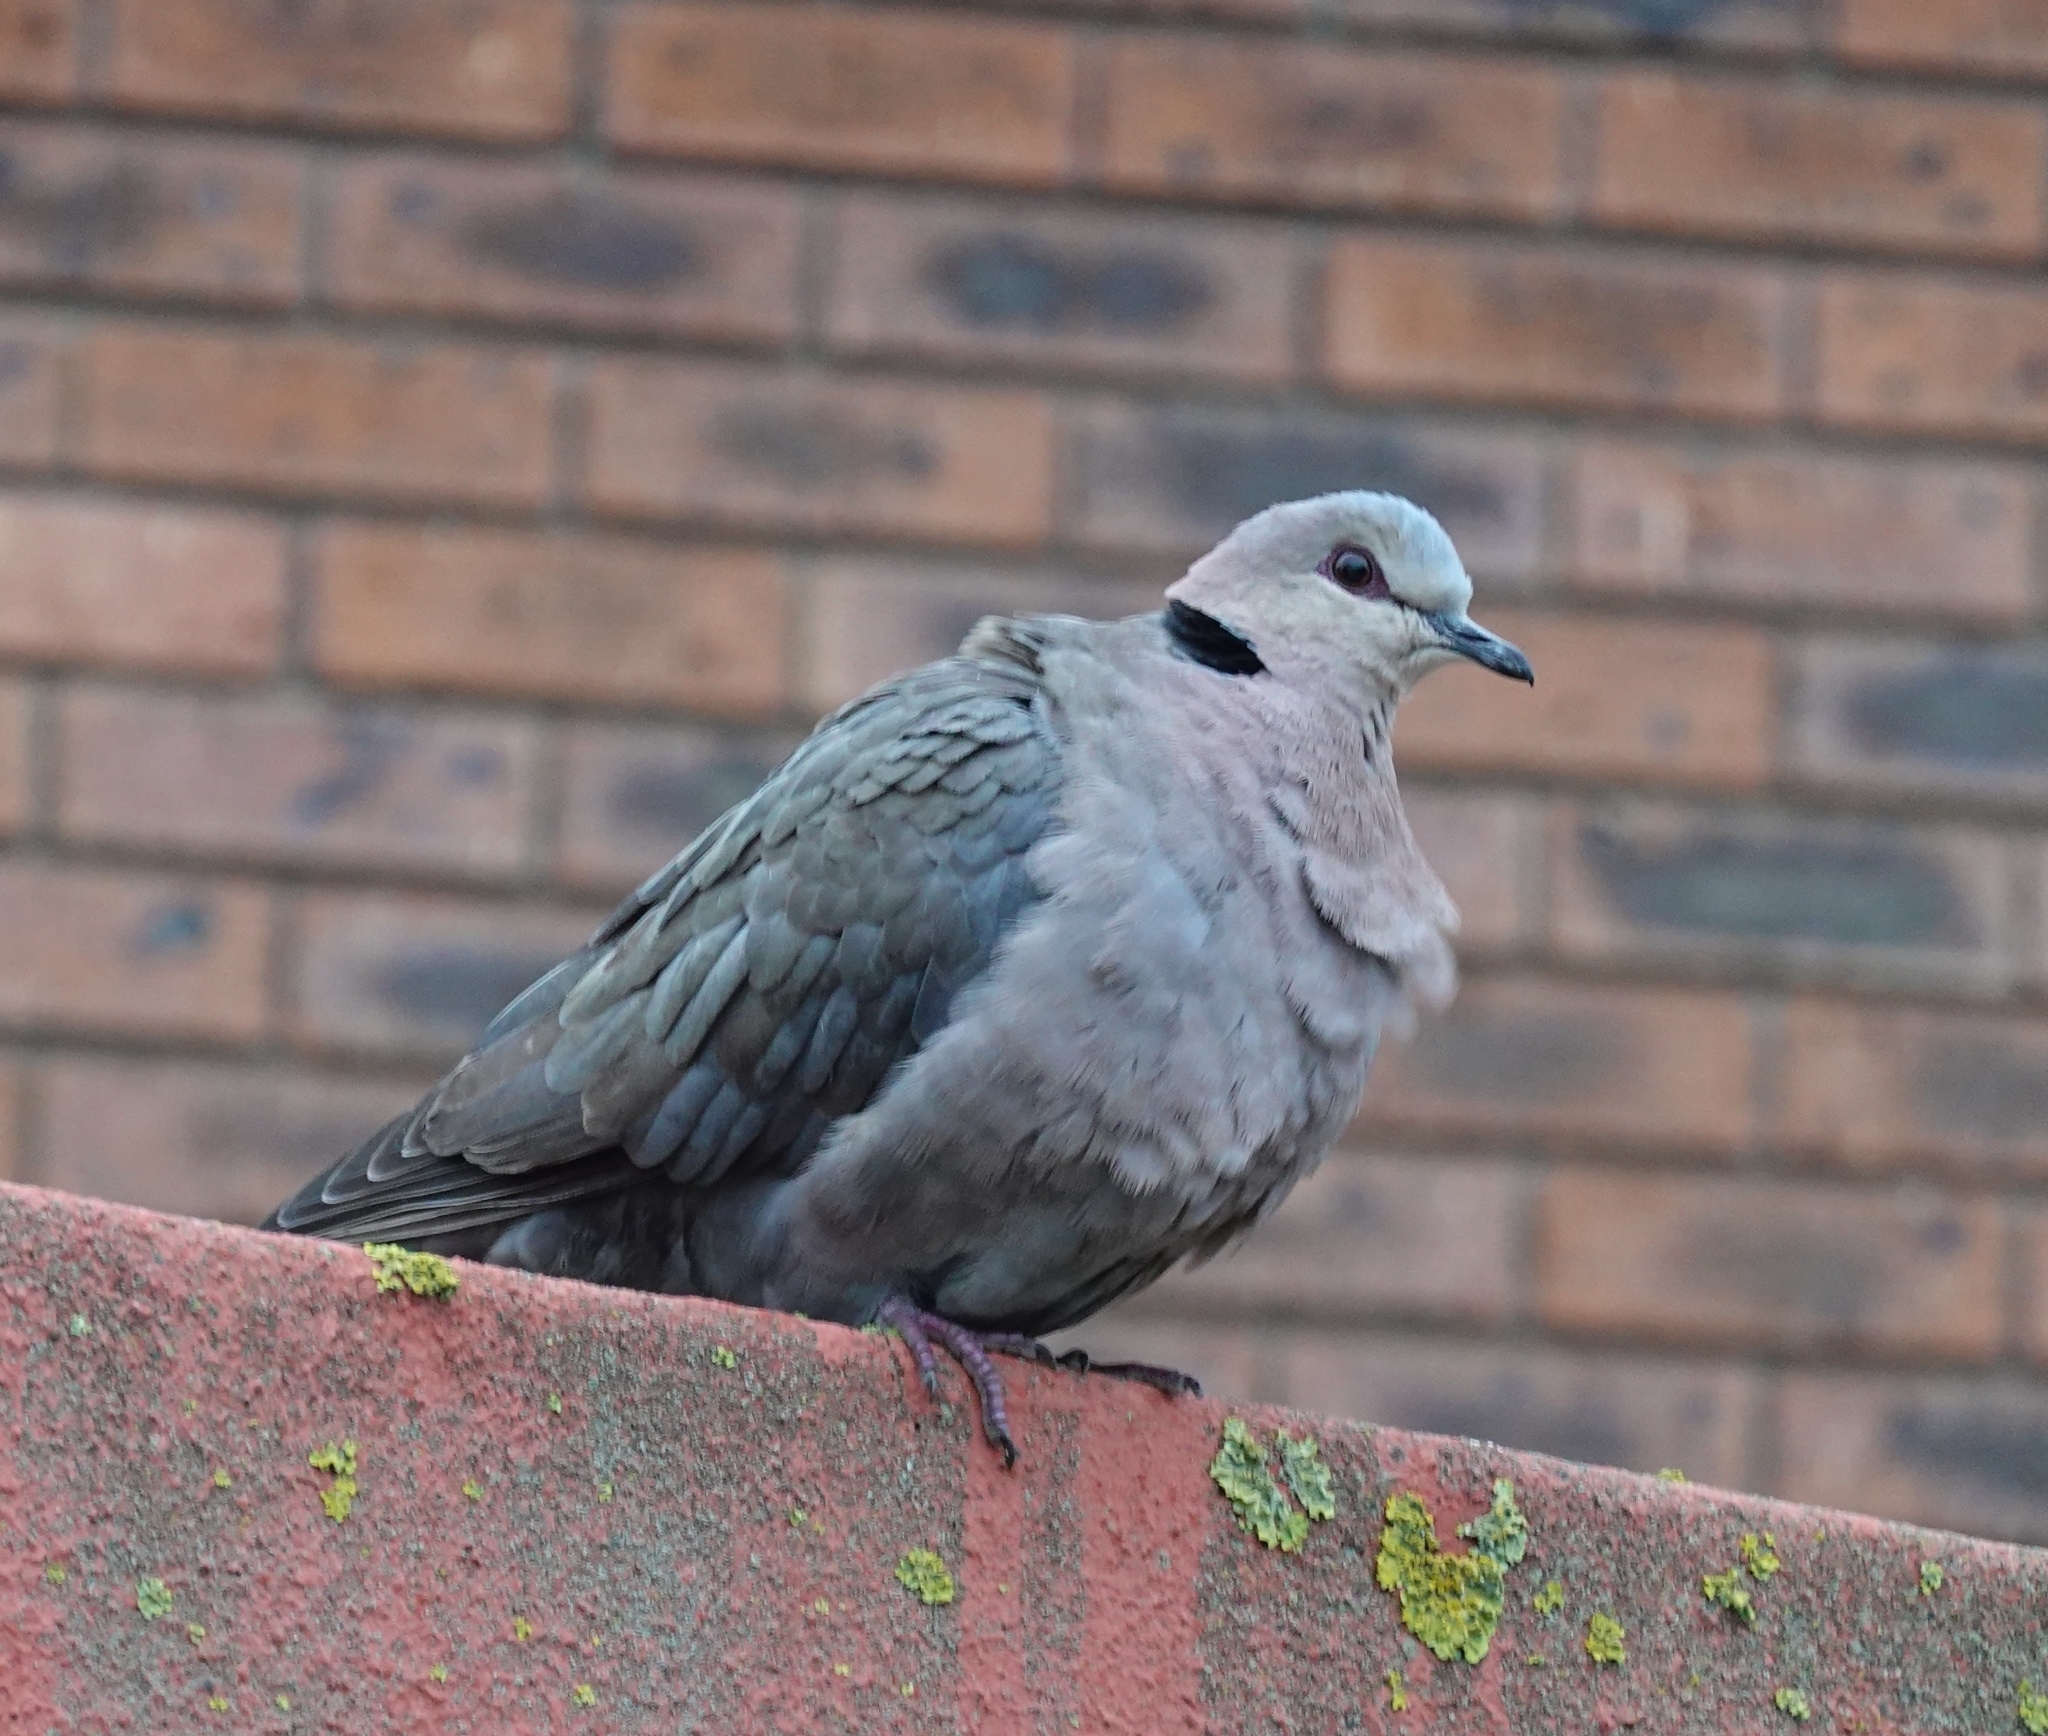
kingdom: Animalia
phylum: Chordata
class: Aves
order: Columbiformes
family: Columbidae
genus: Streptopelia
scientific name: Streptopelia semitorquata
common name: Red-eyed dove
